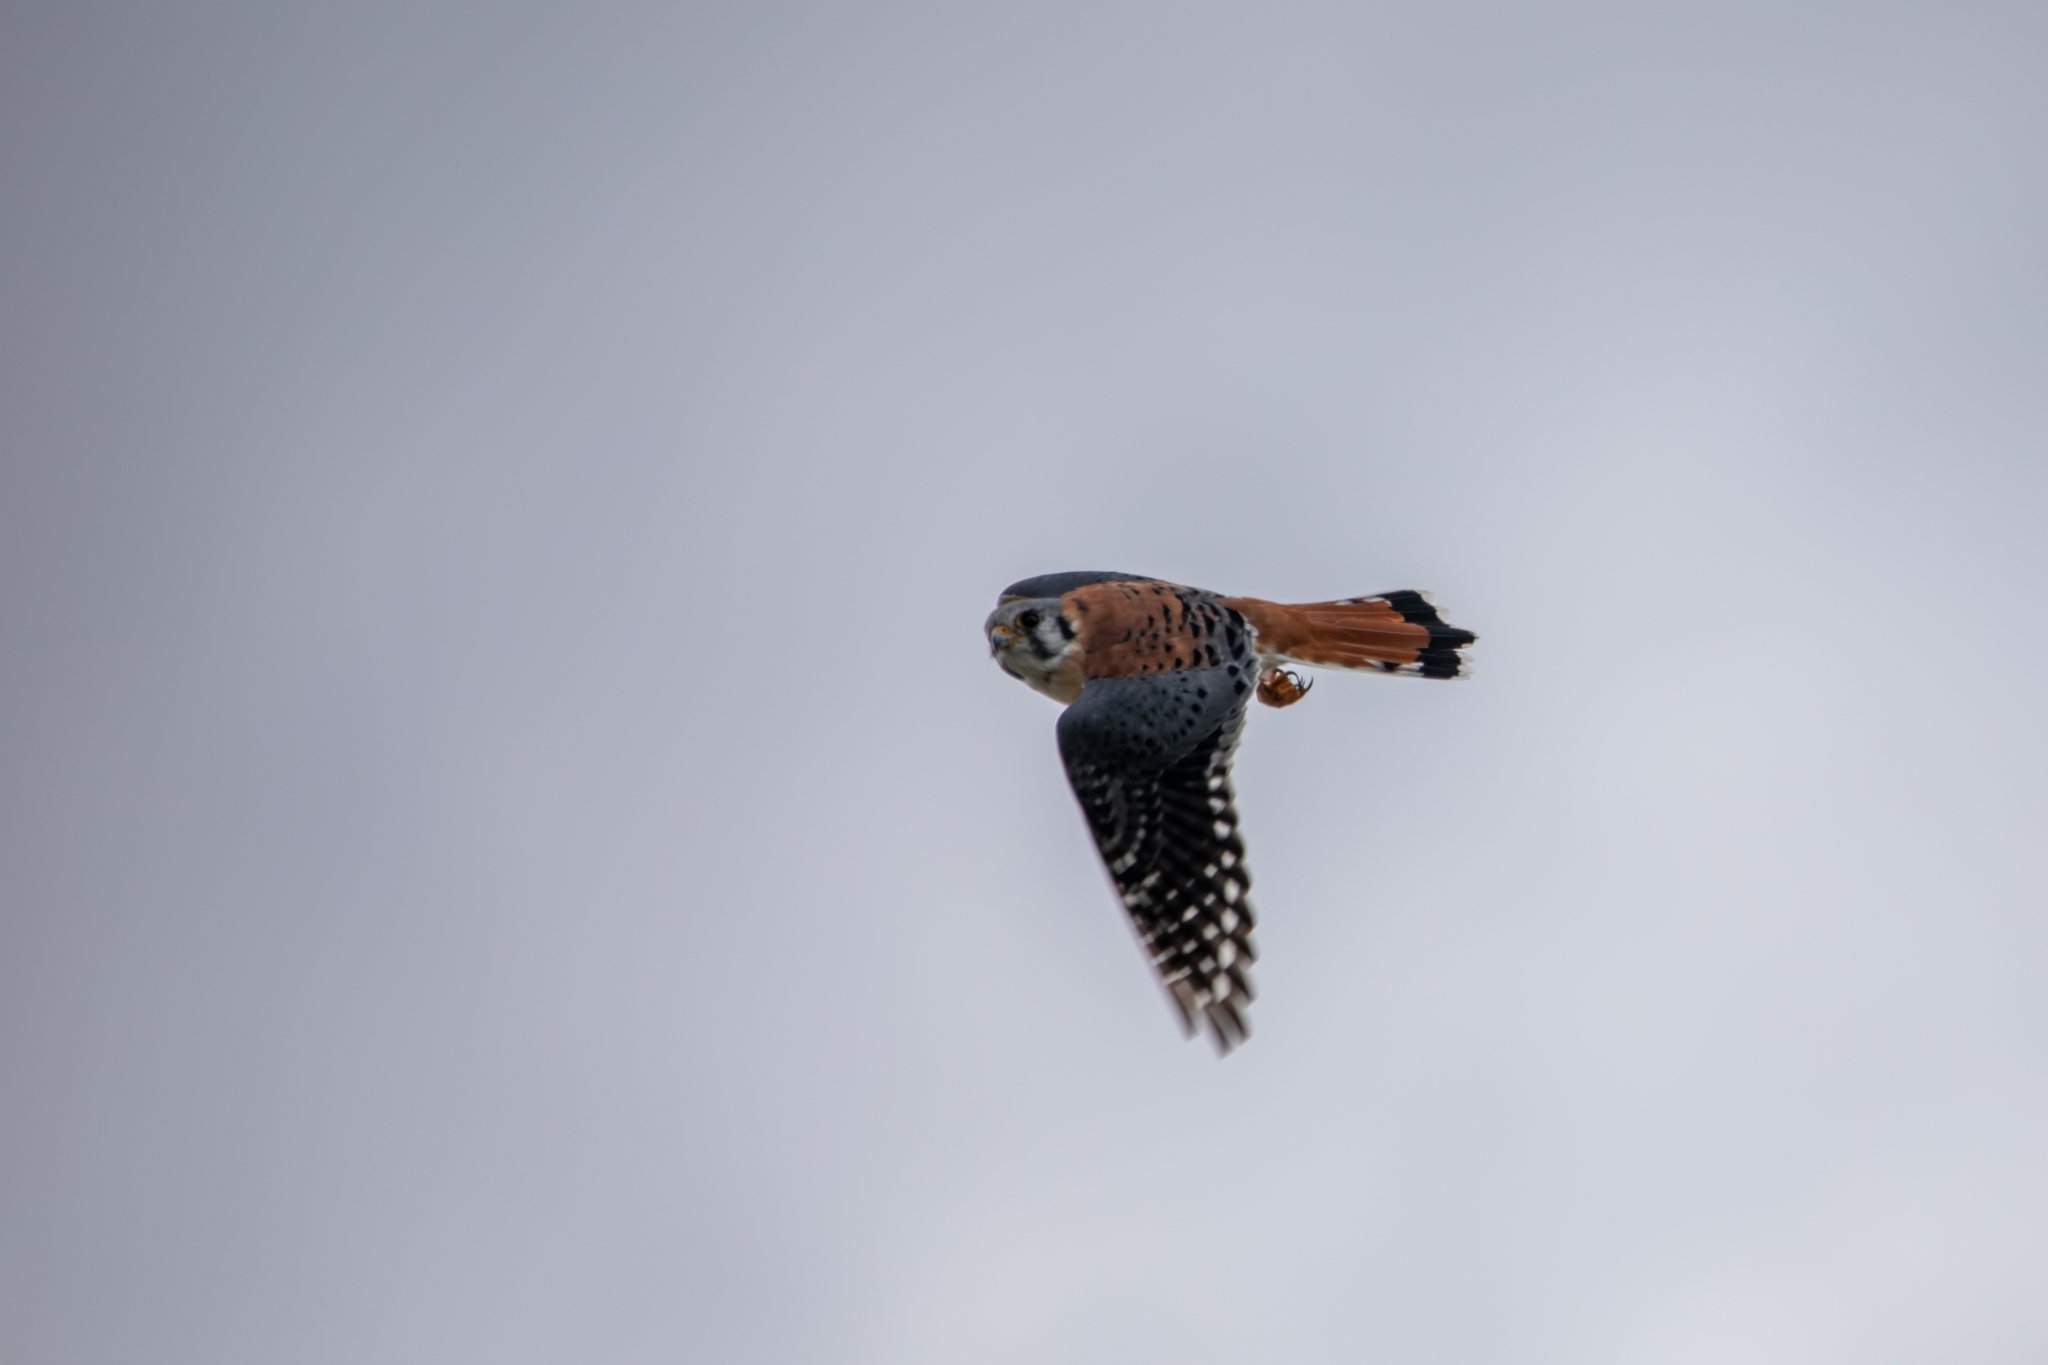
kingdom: Animalia
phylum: Chordata
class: Aves
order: Falconiformes
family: Falconidae
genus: Falco
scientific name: Falco sparverius
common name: American kestrel
